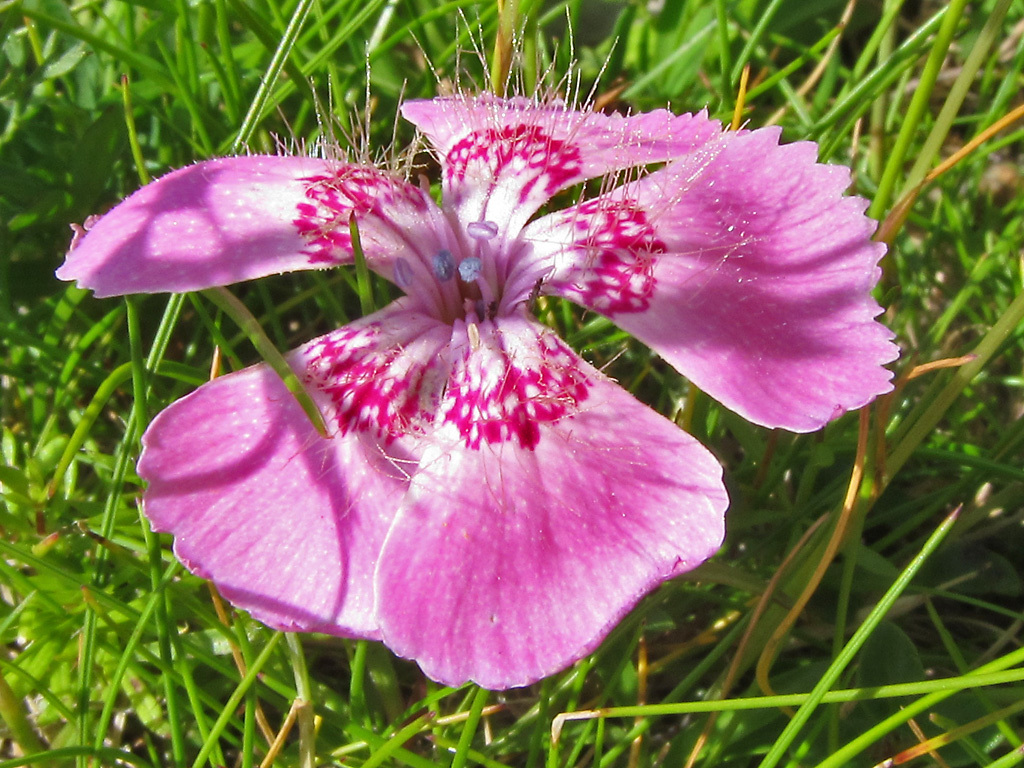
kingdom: Plantae
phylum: Tracheophyta
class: Magnoliopsida
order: Caryophyllales
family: Caryophyllaceae
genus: Dianthus
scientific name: Dianthus alpinus
